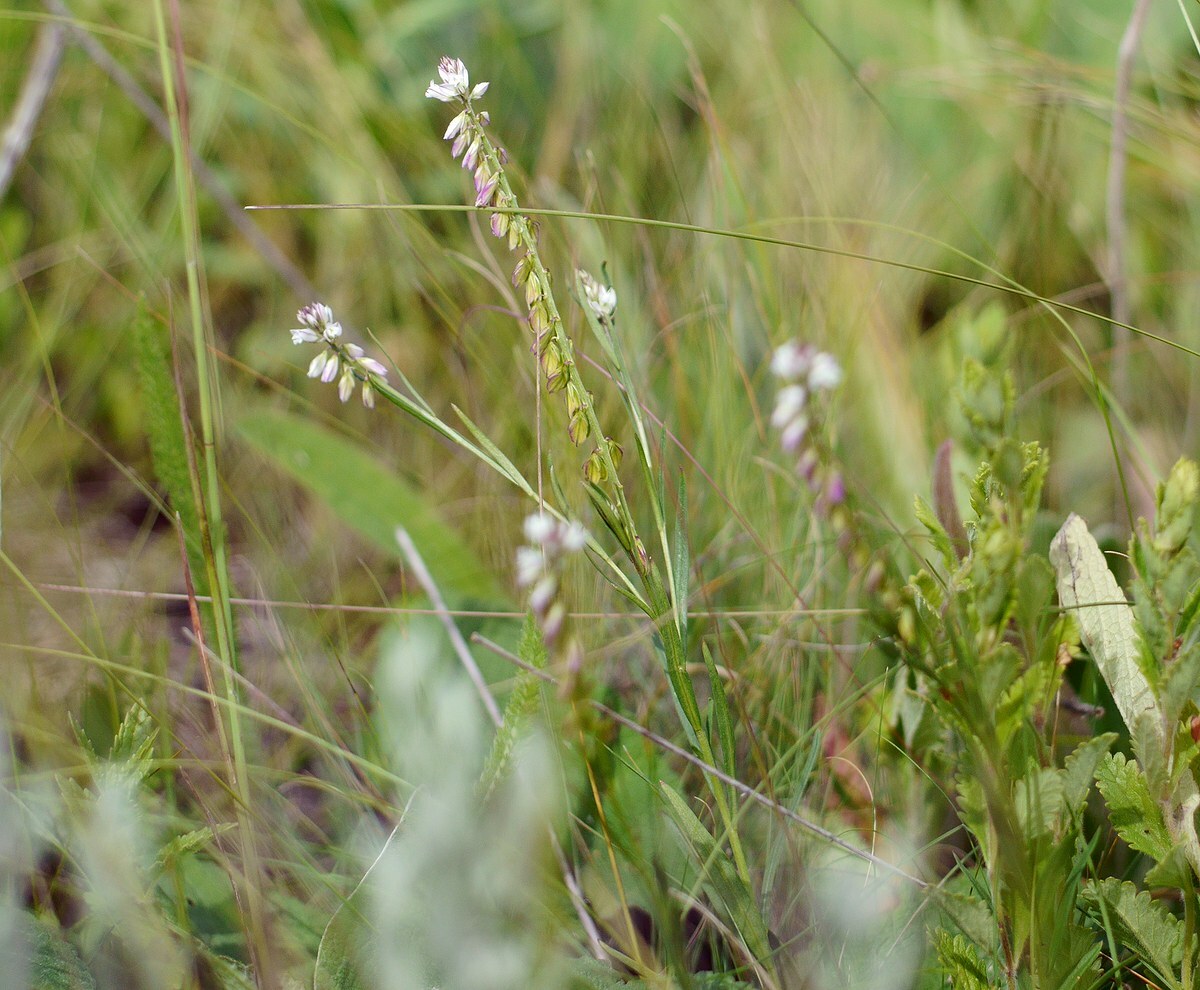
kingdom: Plantae
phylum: Tracheophyta
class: Magnoliopsida
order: Fabales
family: Polygalaceae
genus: Polygala
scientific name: Polygala comosa
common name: Tufted milkwort
